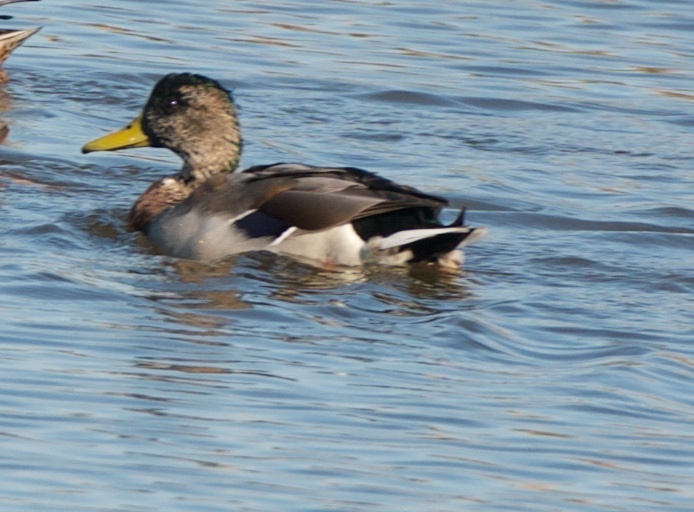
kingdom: Animalia
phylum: Chordata
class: Aves
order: Anseriformes
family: Anatidae
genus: Anas
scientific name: Anas platyrhynchos
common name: Mallard
